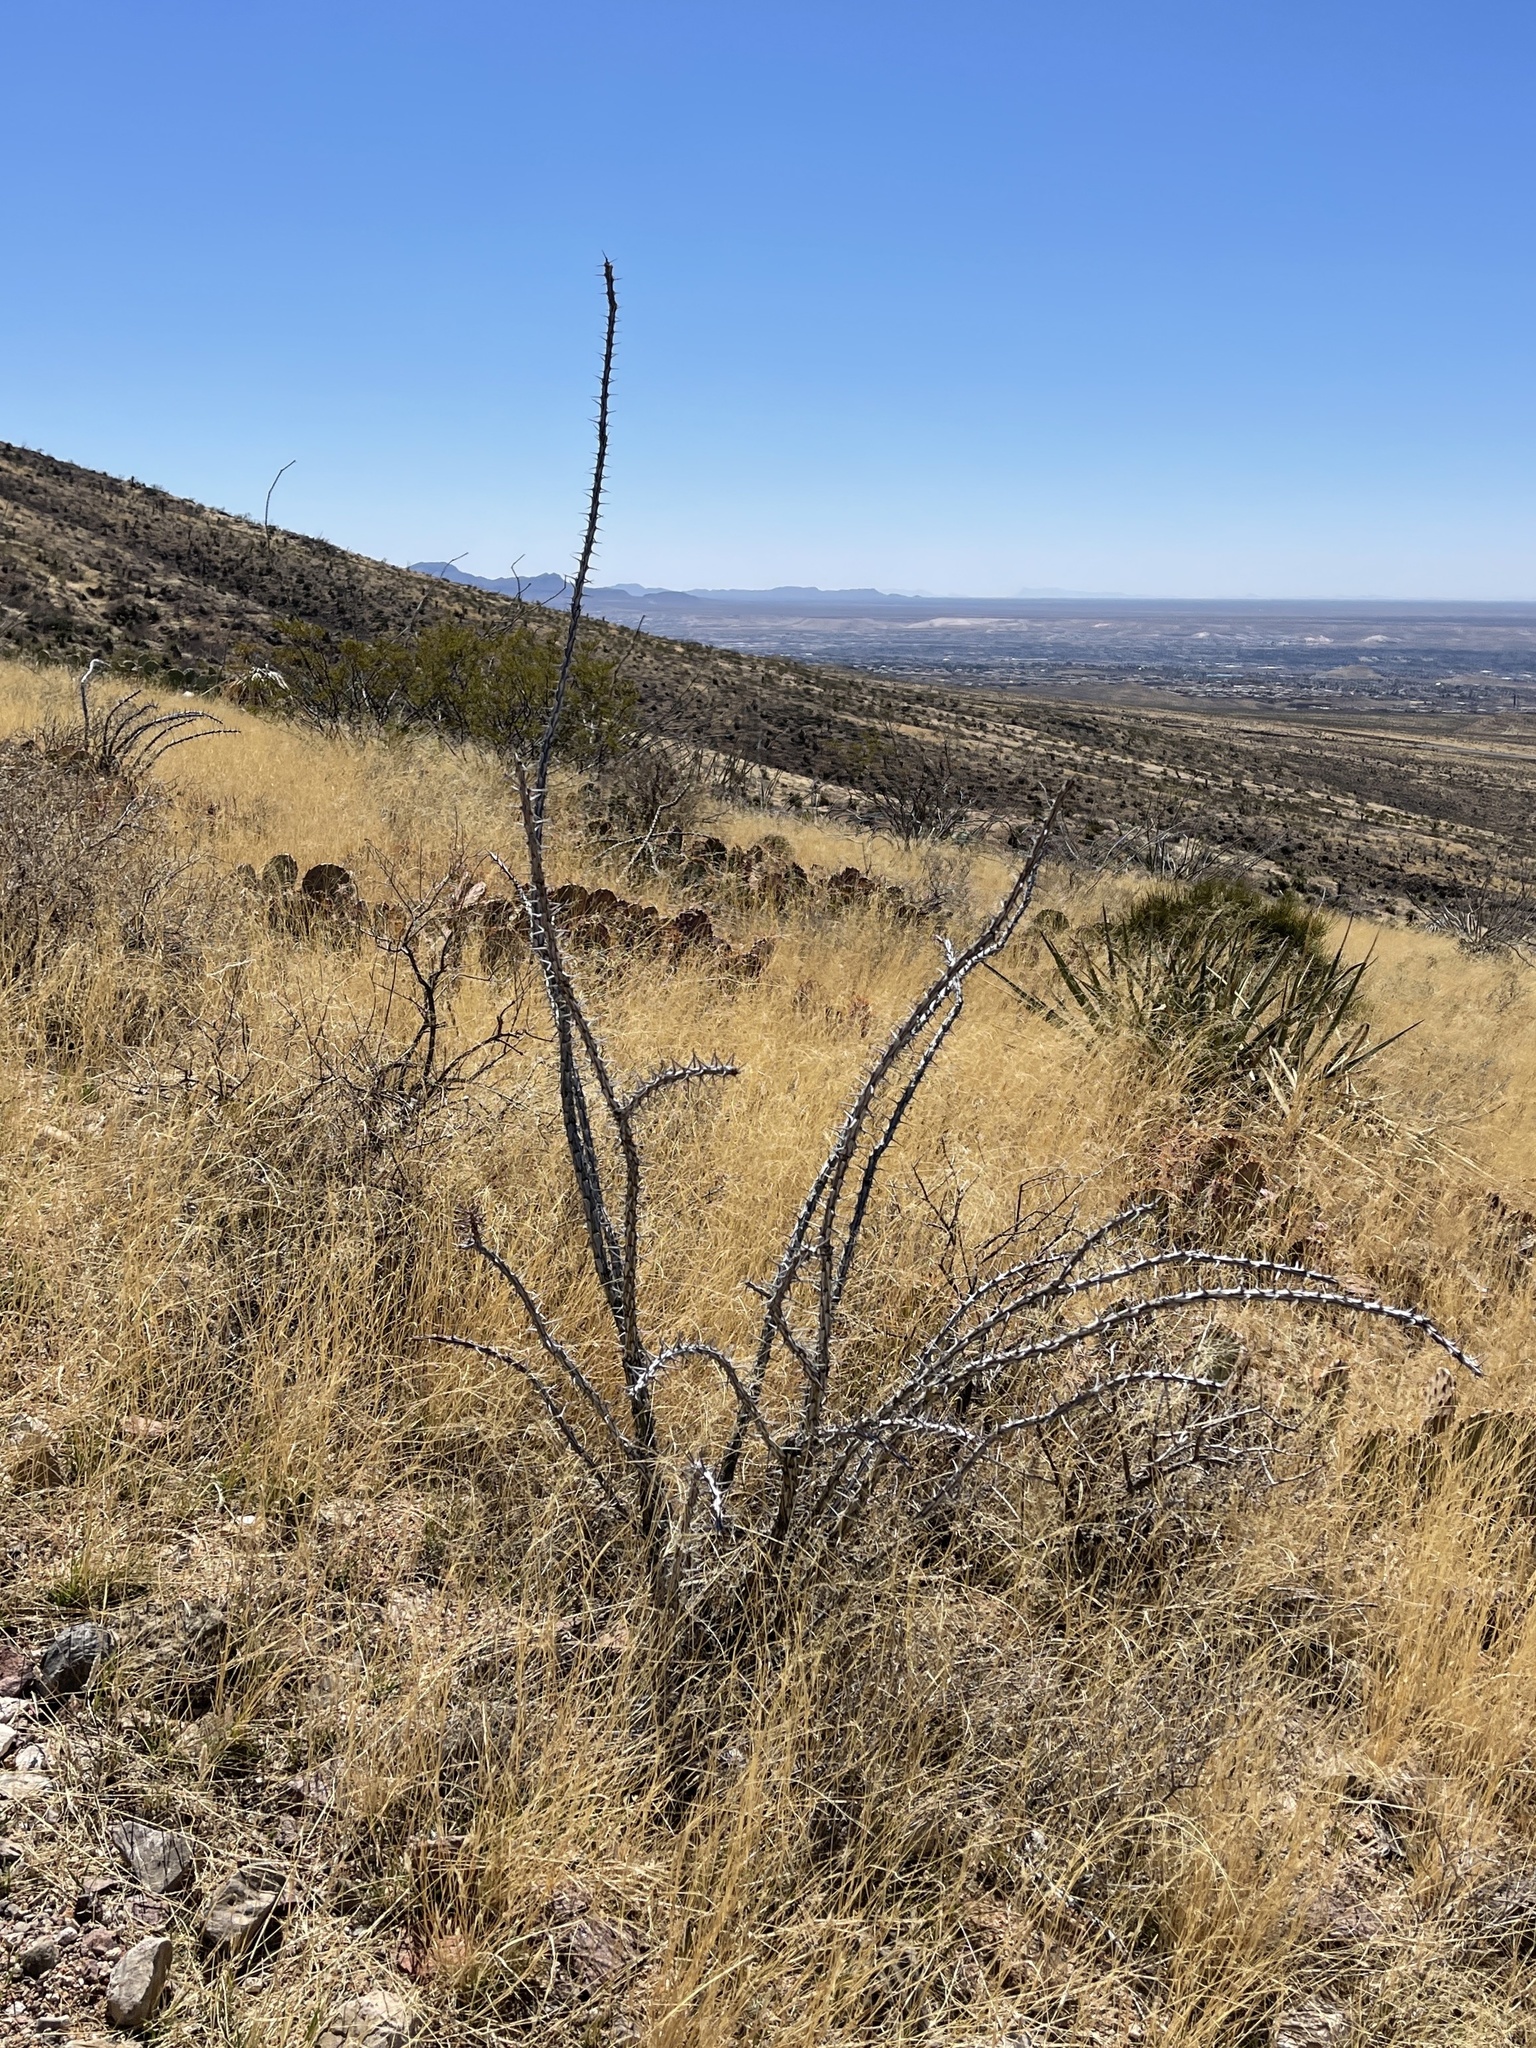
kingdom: Plantae
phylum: Tracheophyta
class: Magnoliopsida
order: Ericales
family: Fouquieriaceae
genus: Fouquieria
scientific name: Fouquieria splendens
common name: Vine-cactus
